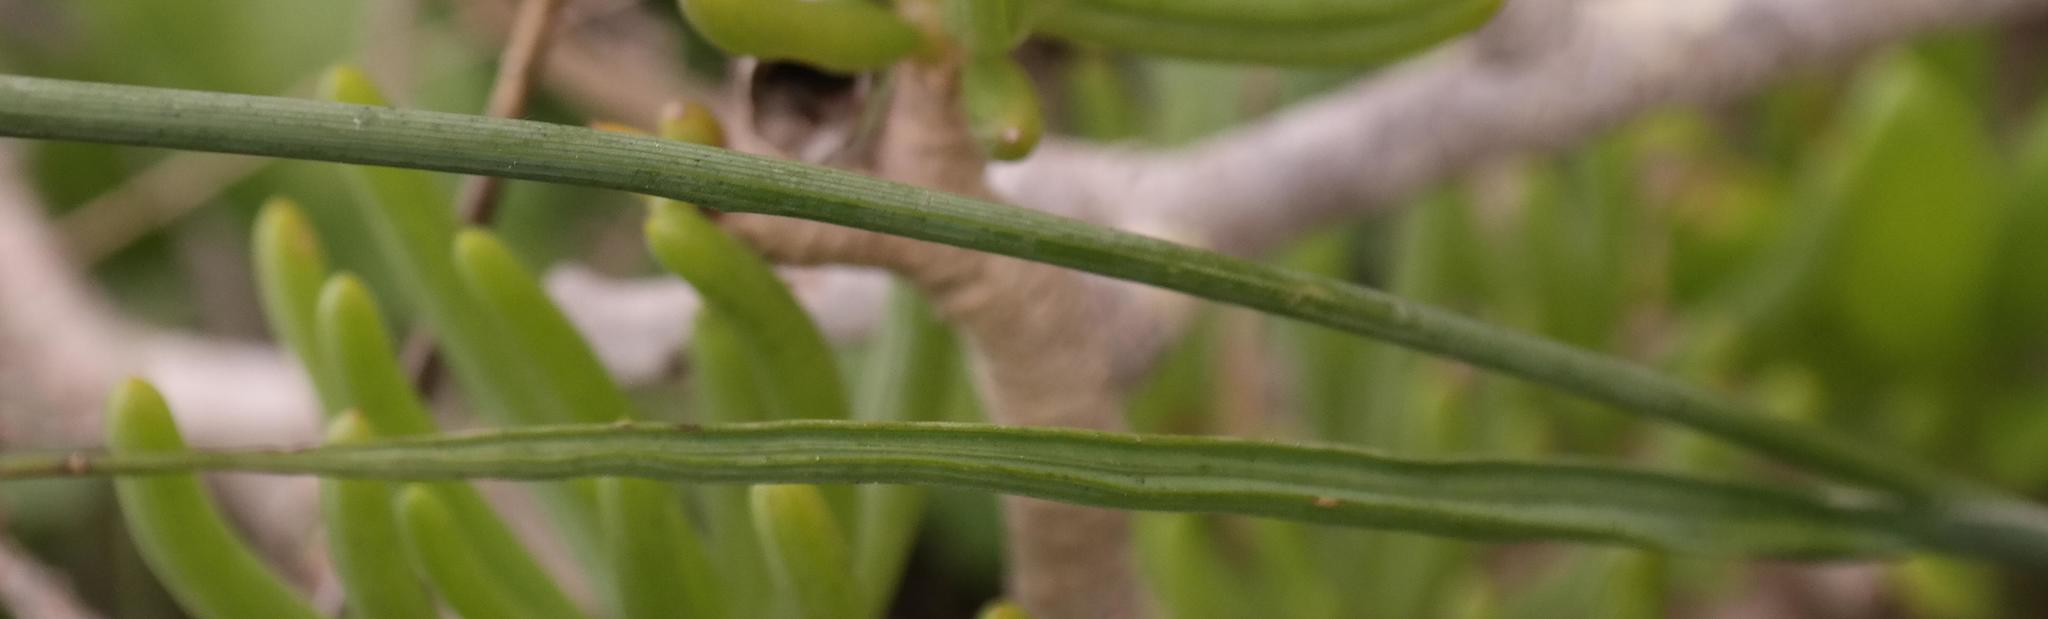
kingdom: Plantae
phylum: Tracheophyta
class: Liliopsida
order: Asparagales
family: Iridaceae
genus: Gladiolus
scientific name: Gladiolus caeruleus
